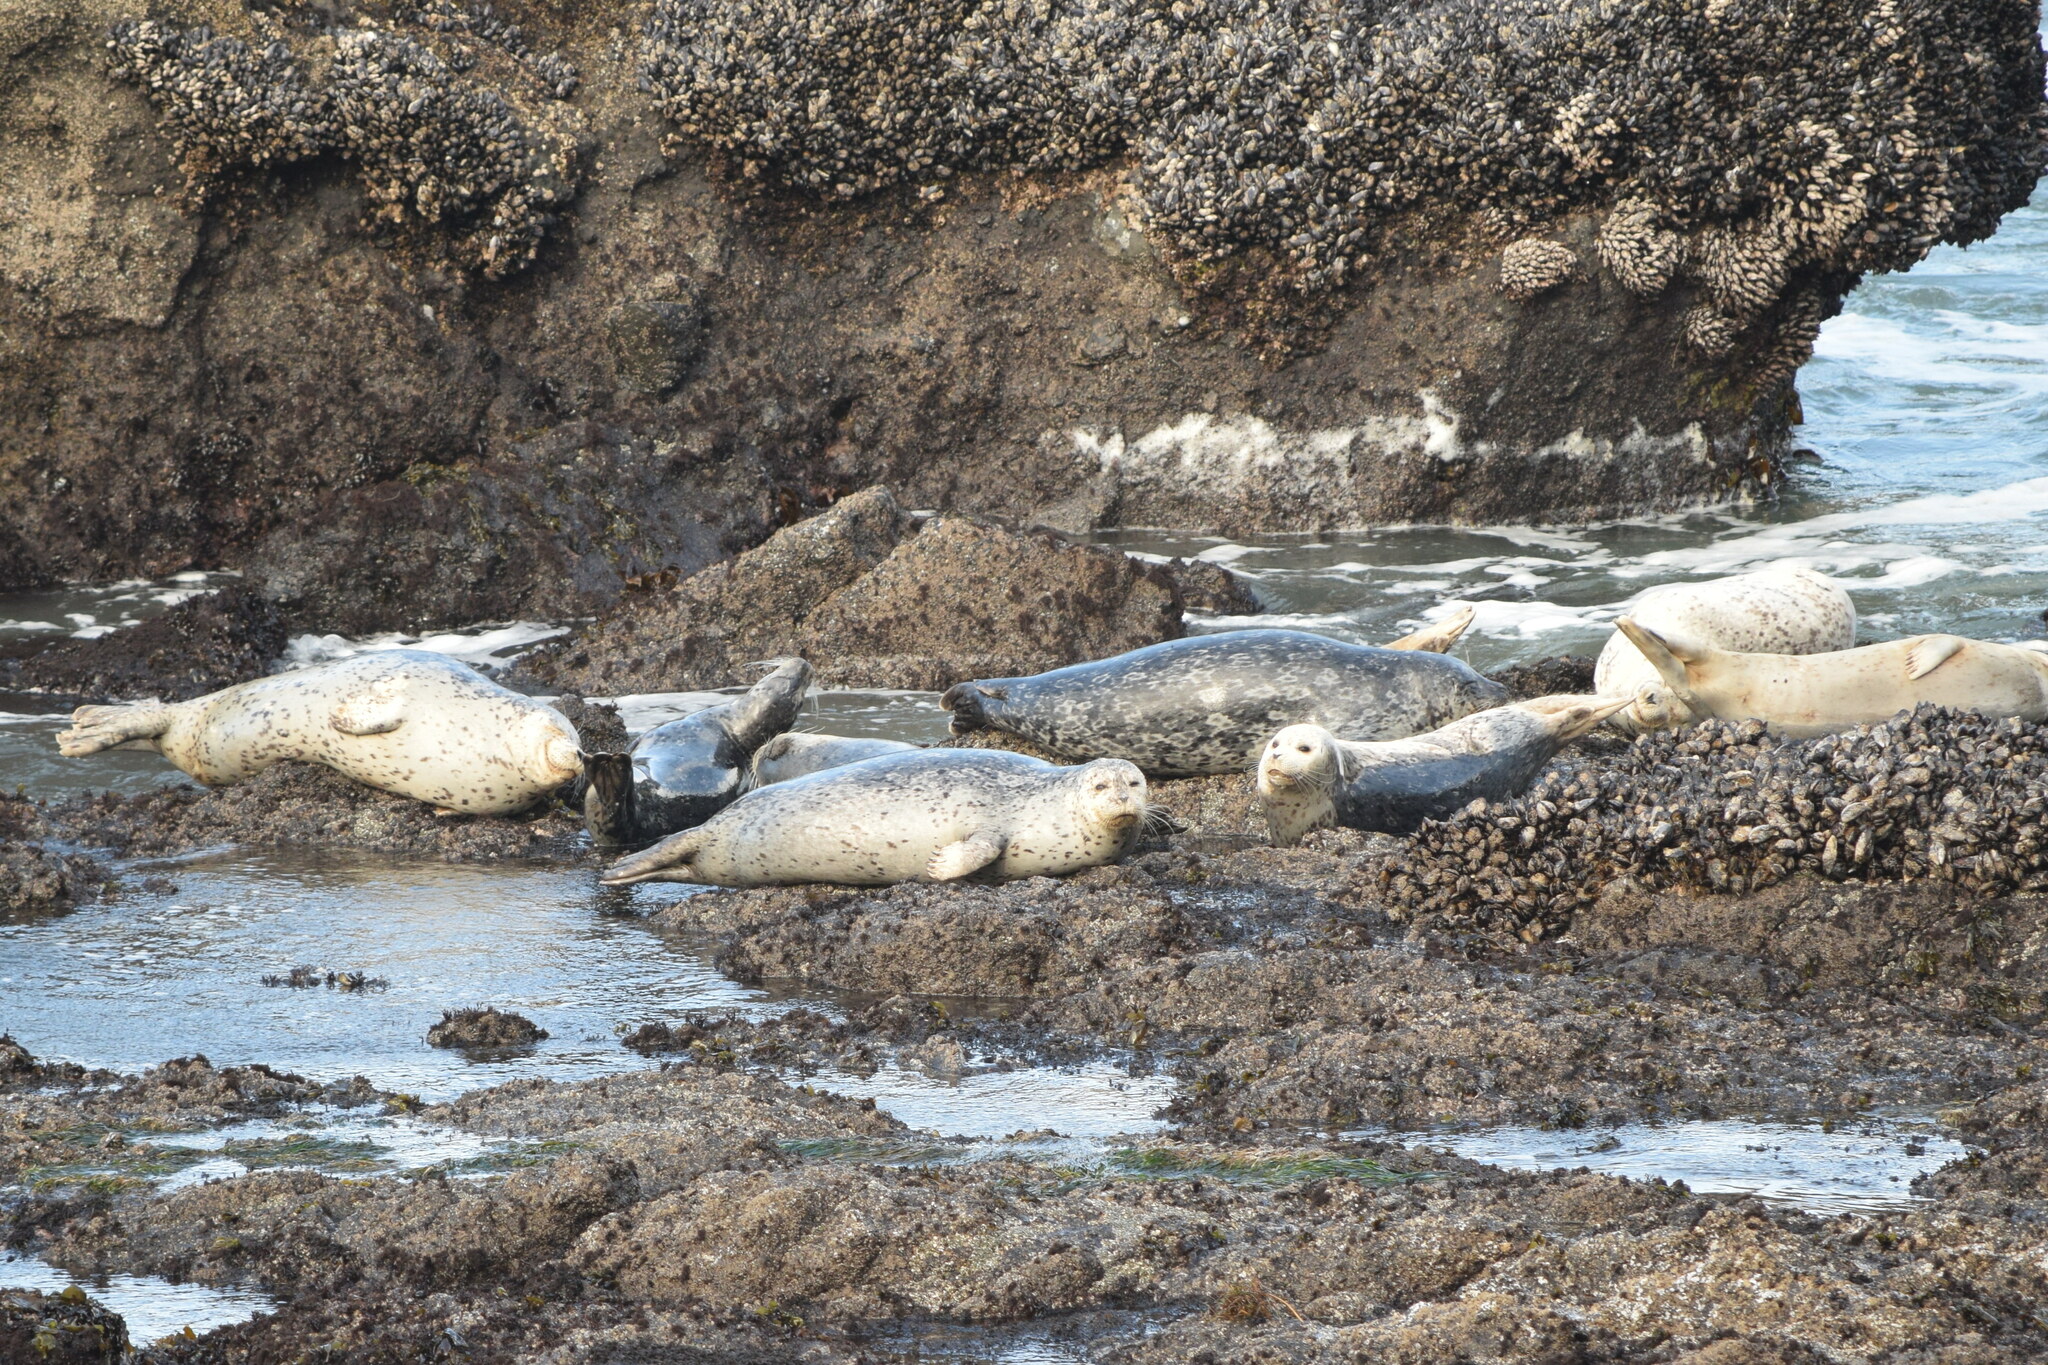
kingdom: Animalia
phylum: Chordata
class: Mammalia
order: Carnivora
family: Phocidae
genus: Phoca
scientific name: Phoca vitulina
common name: Harbor seal
